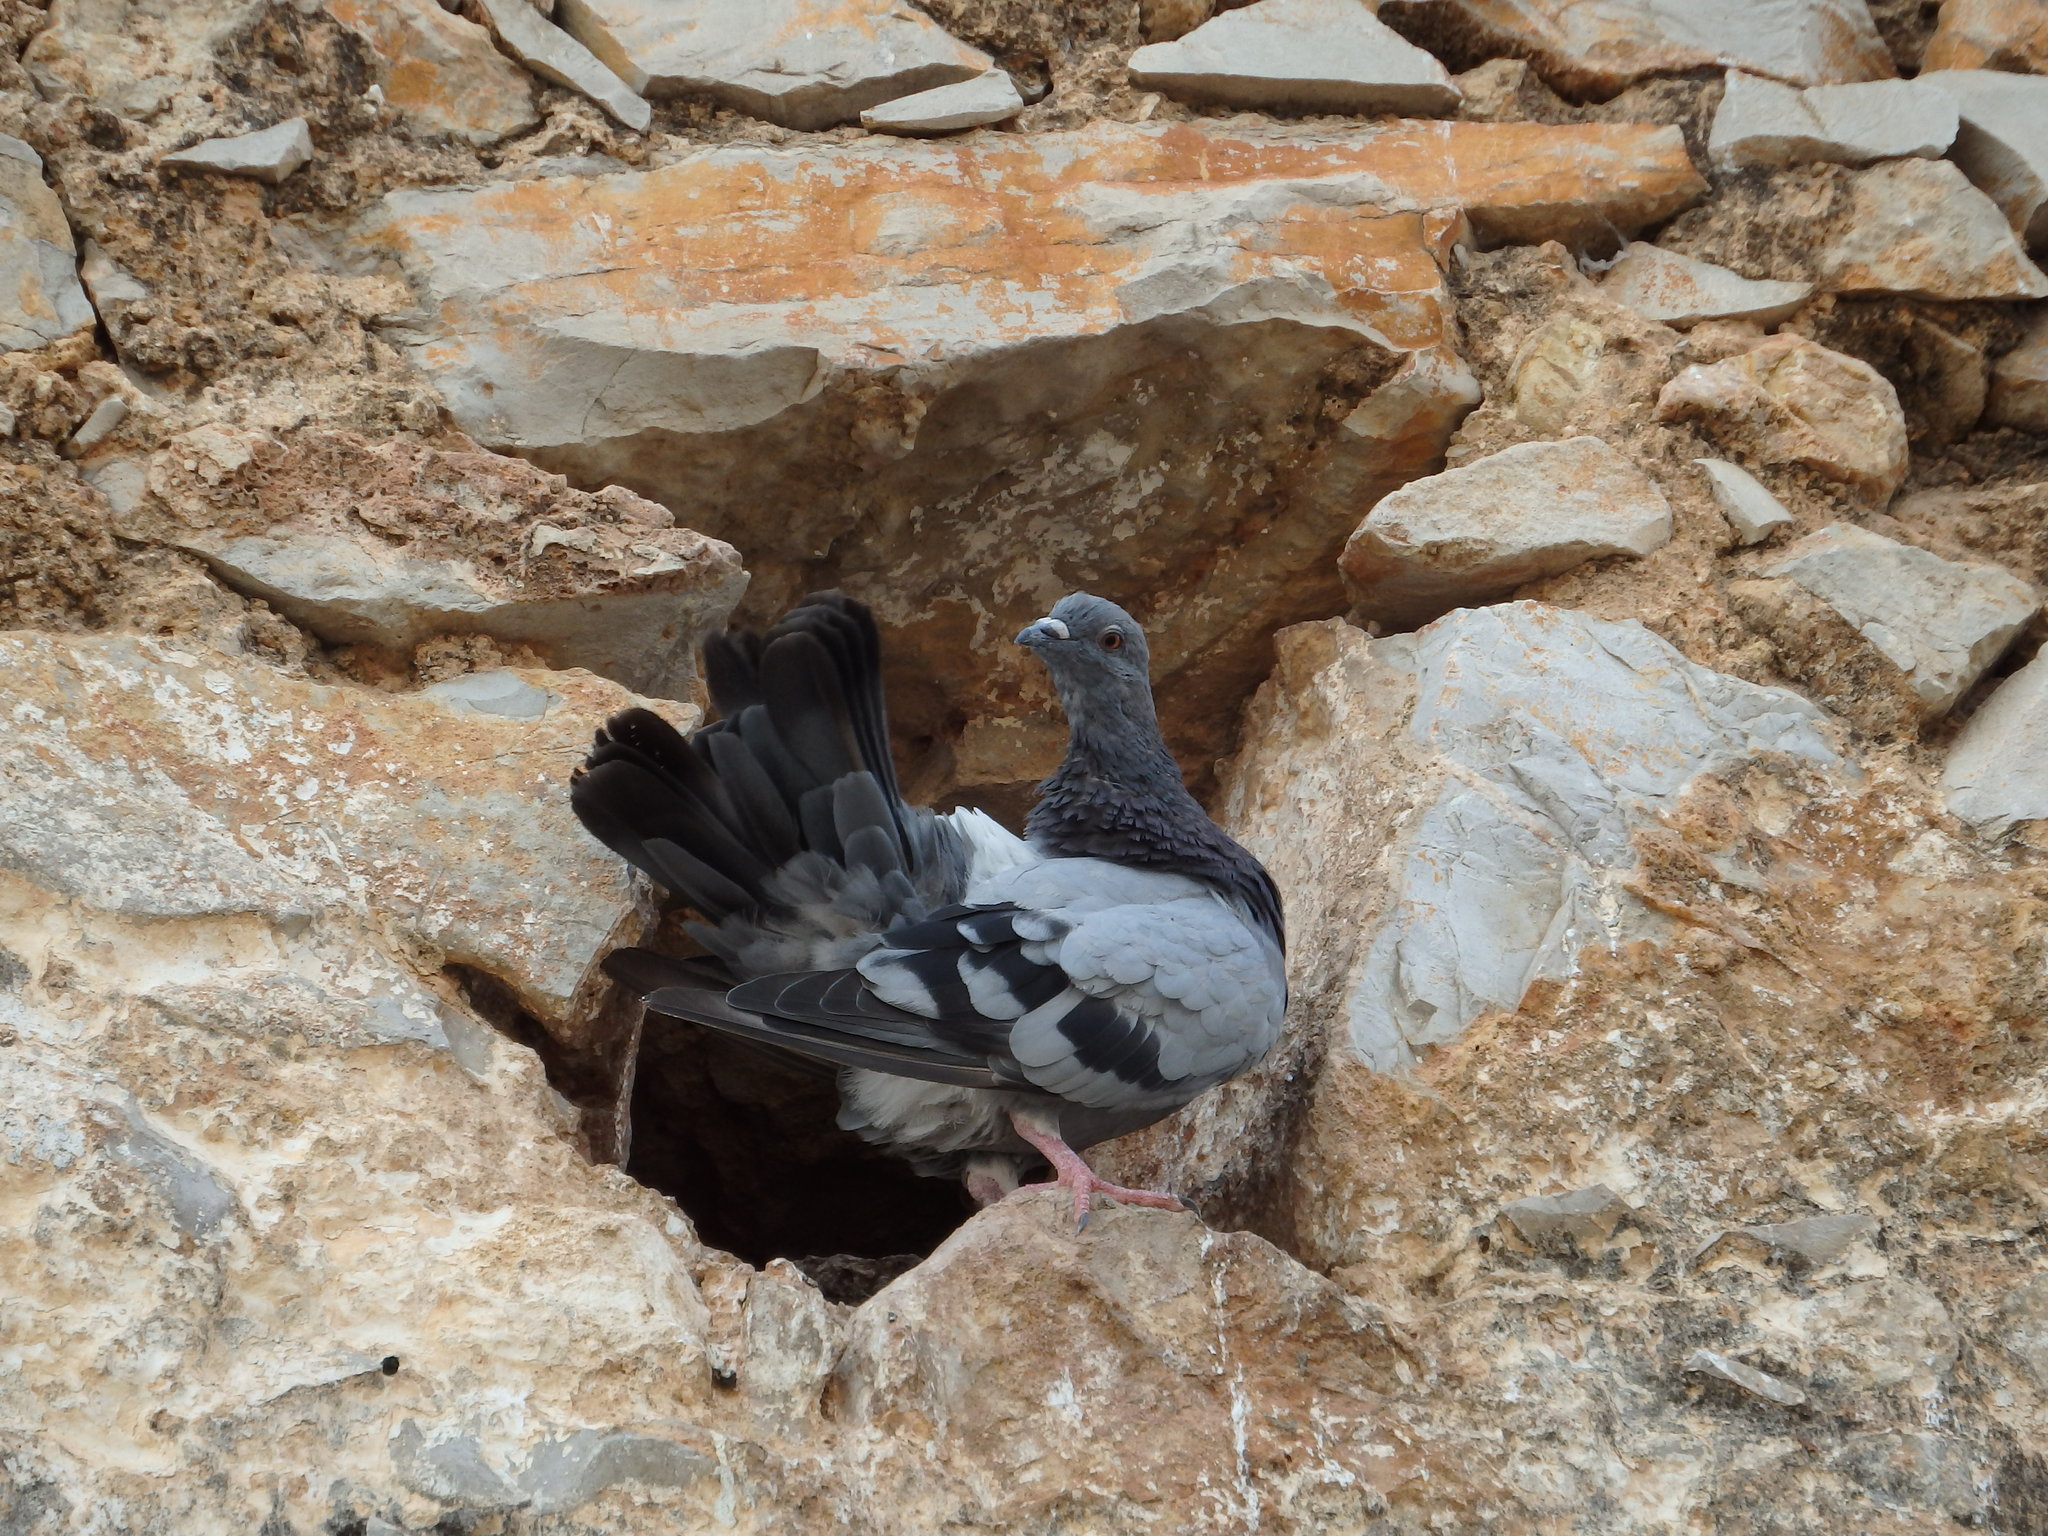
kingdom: Animalia
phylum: Chordata
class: Aves
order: Columbiformes
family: Columbidae
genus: Columba
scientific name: Columba livia
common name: Rock pigeon
